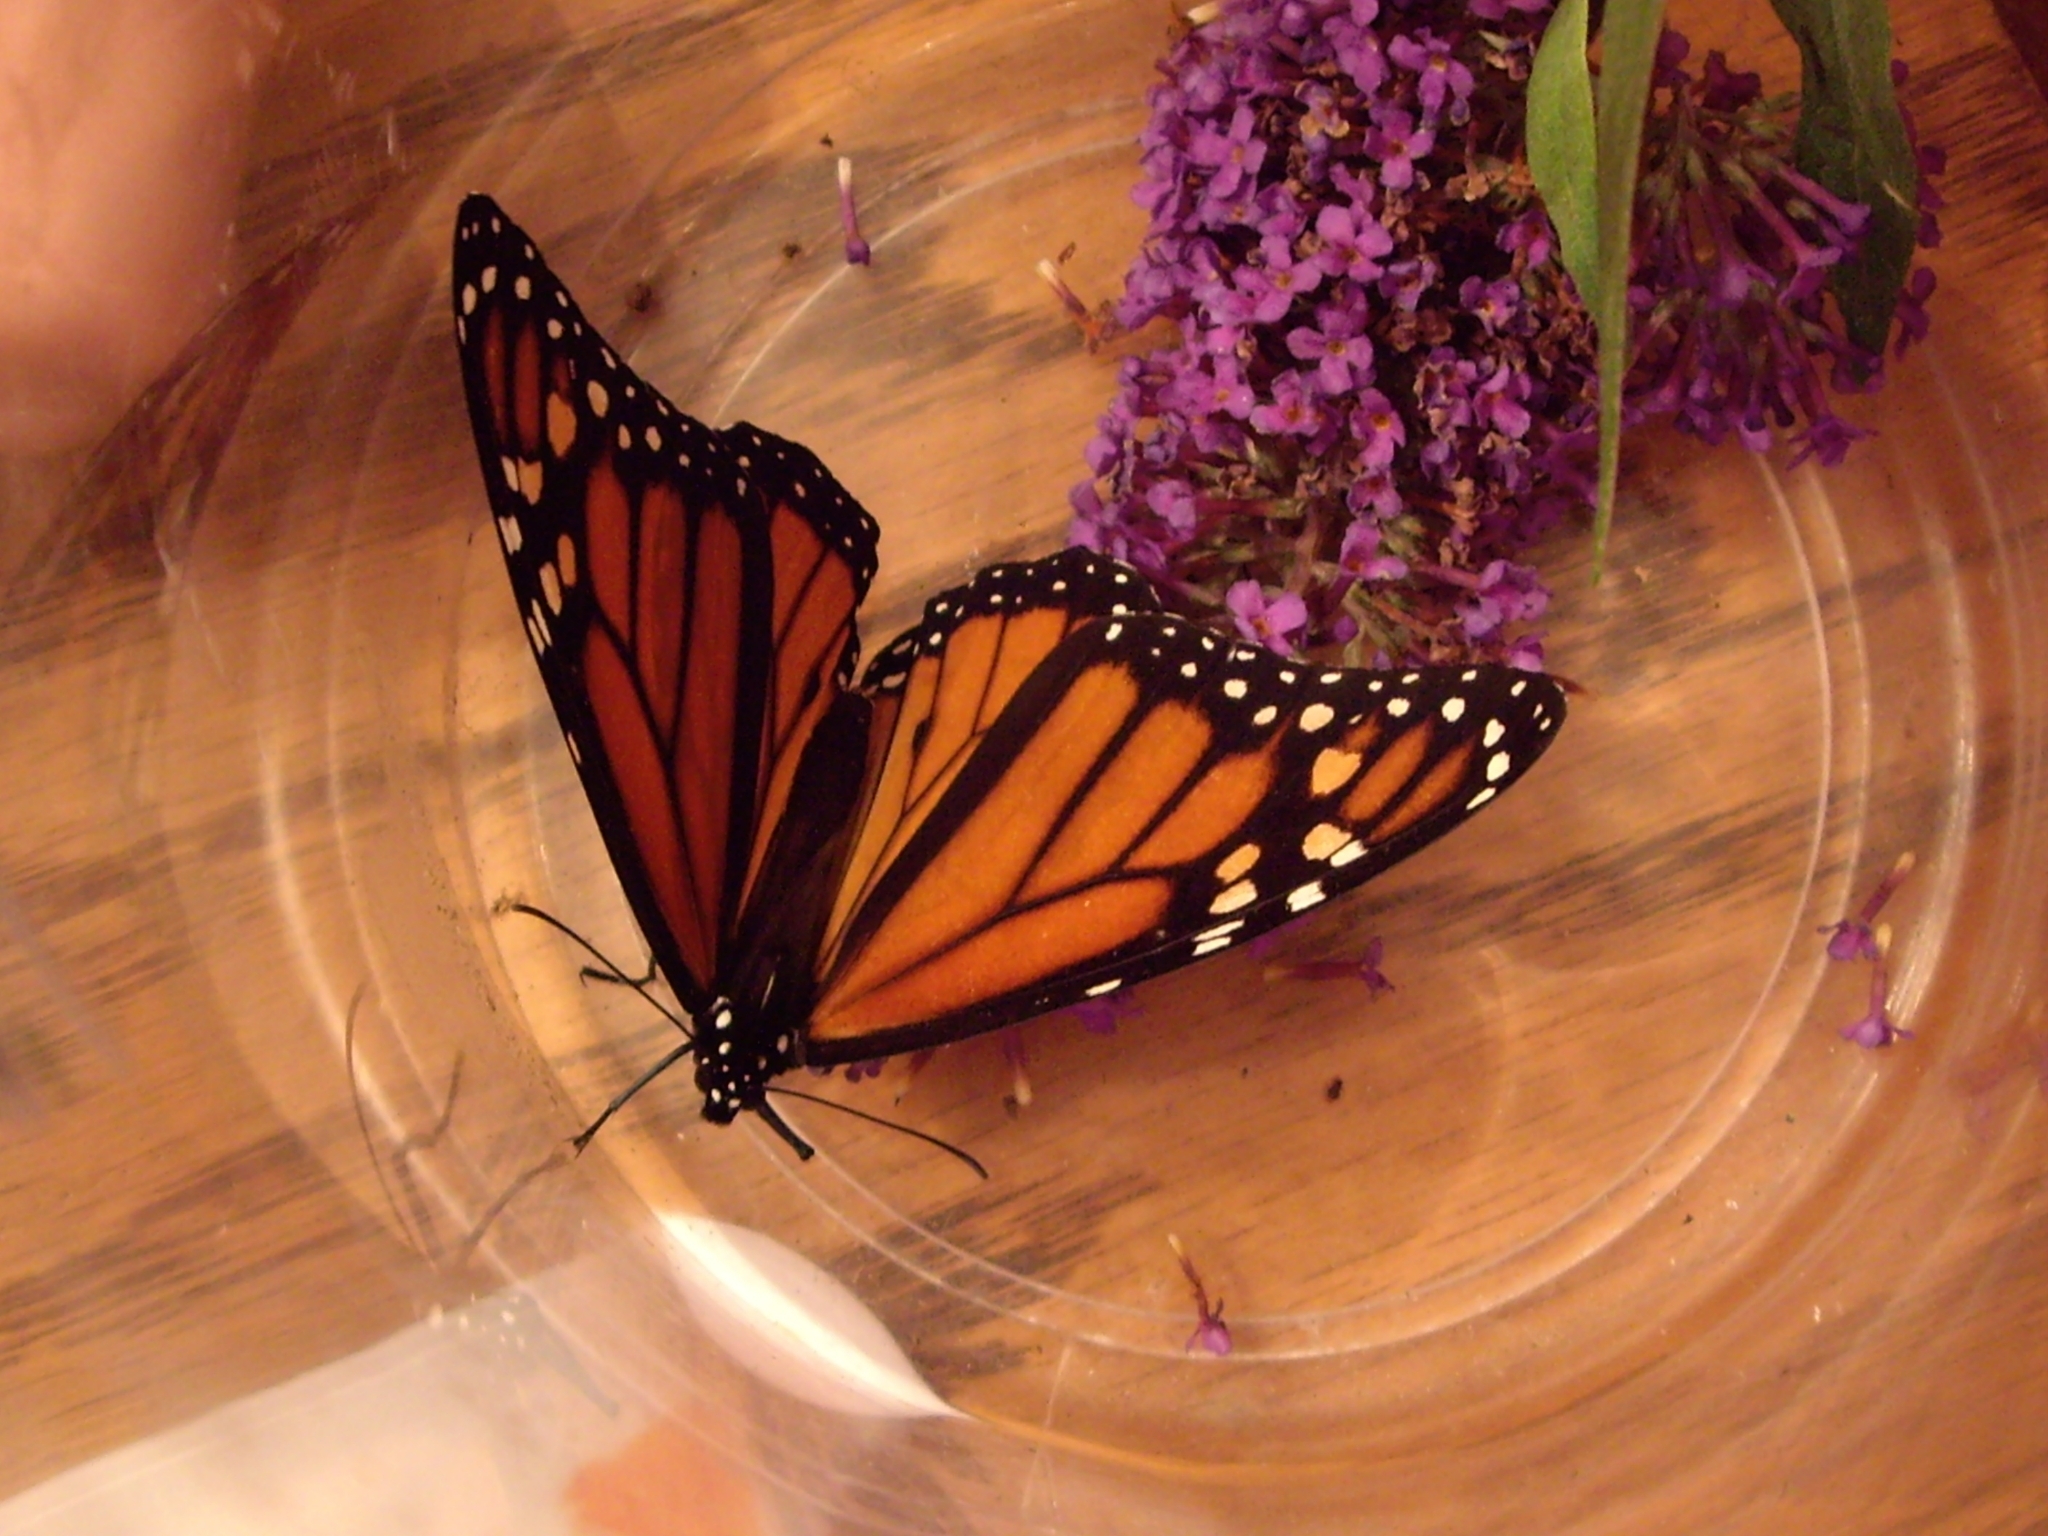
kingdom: Animalia
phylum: Arthropoda
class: Insecta
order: Lepidoptera
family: Nymphalidae
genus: Danaus
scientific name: Danaus plexippus
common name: Monarch
